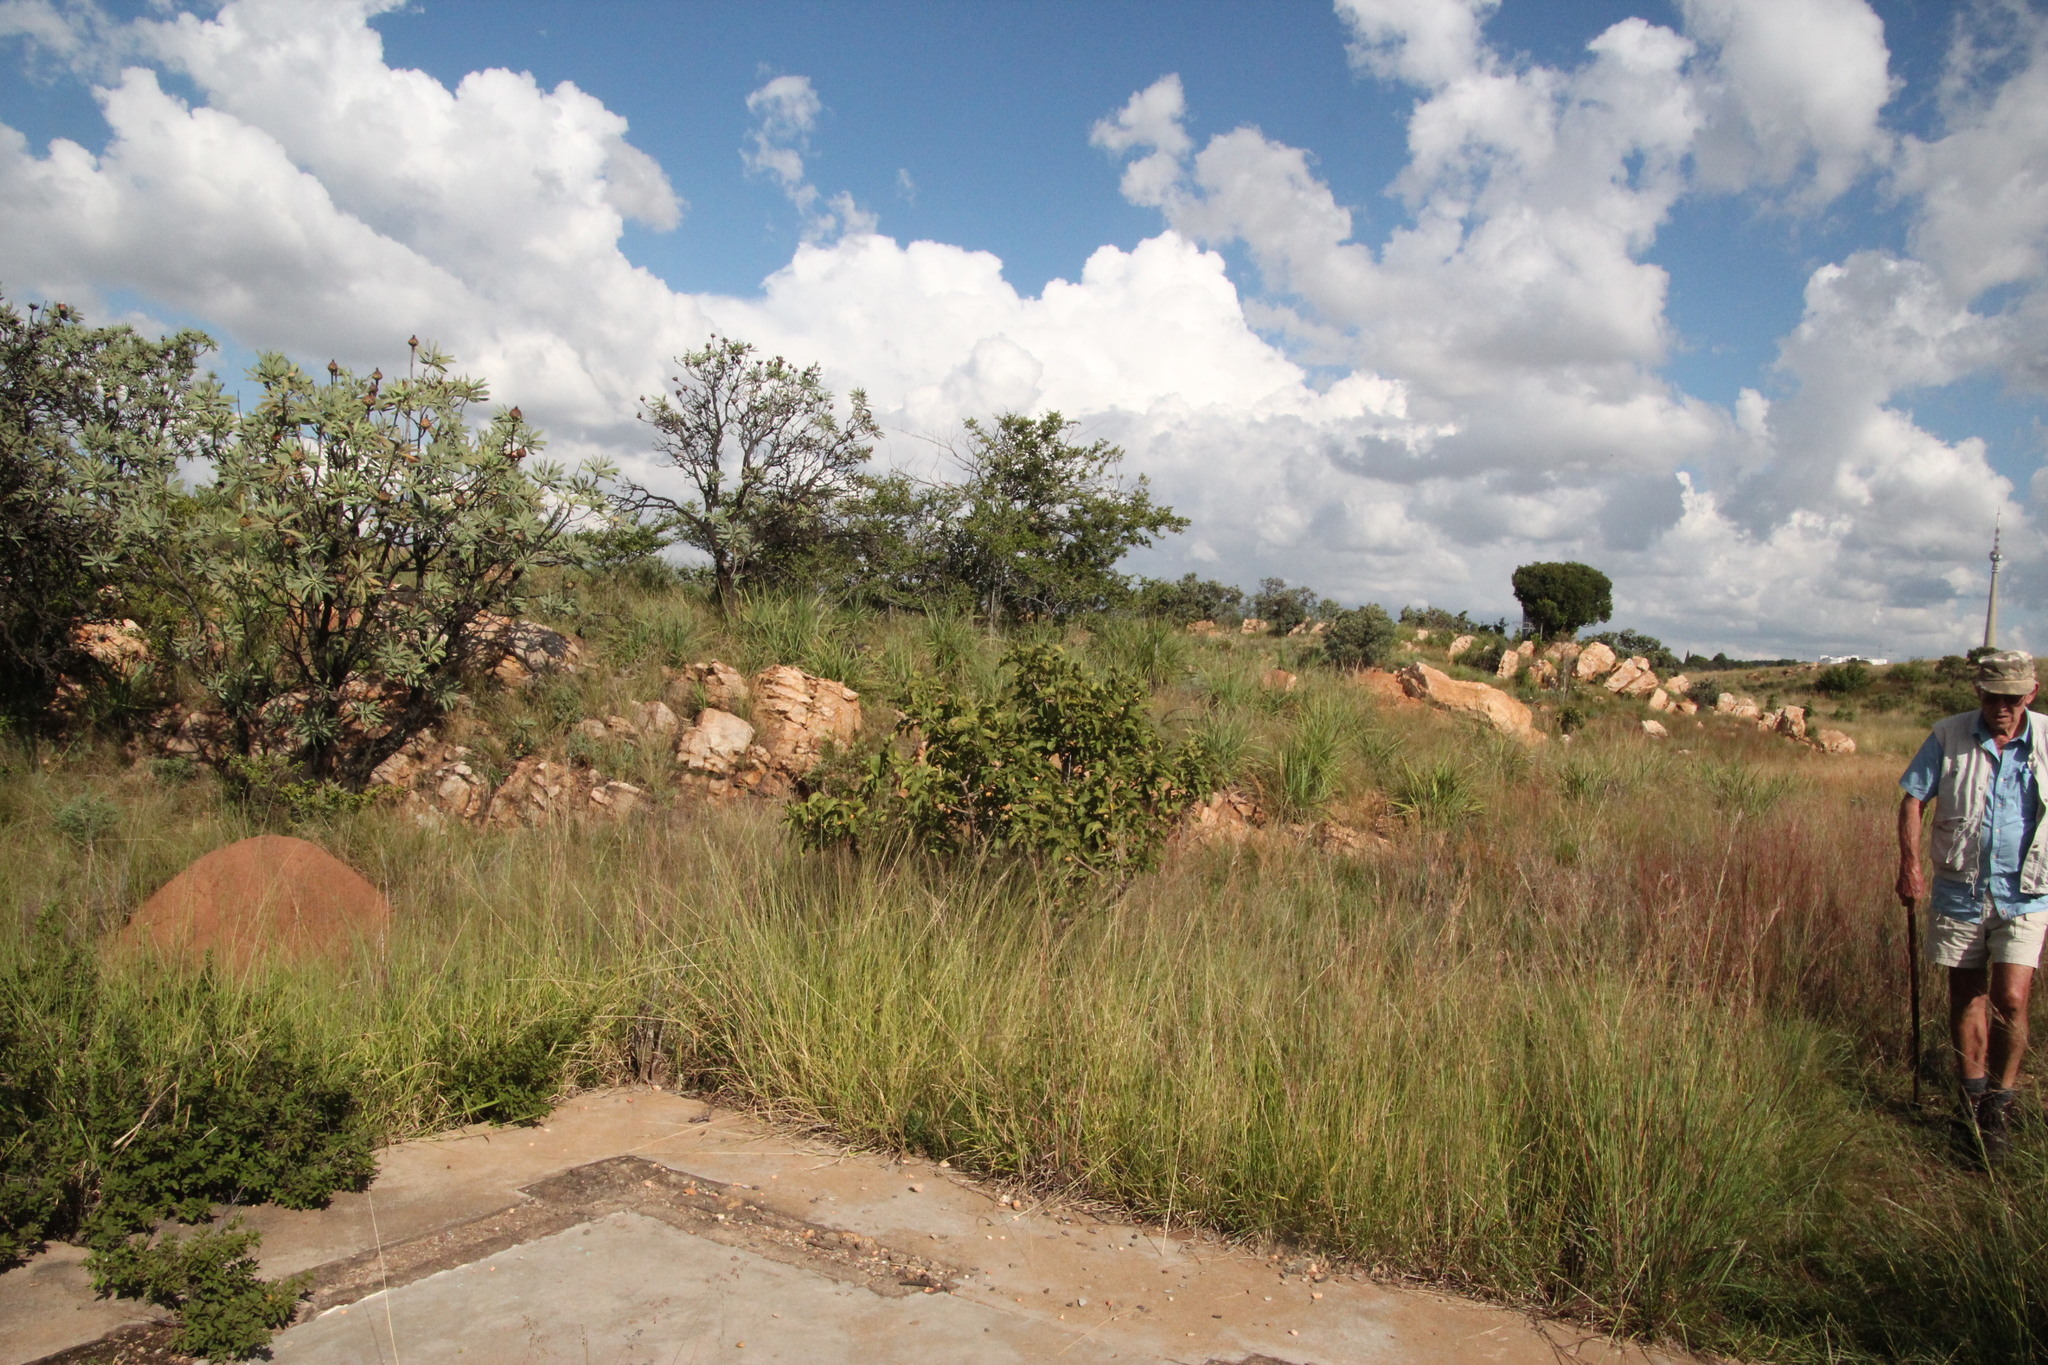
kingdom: Plantae
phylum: Tracheophyta
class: Magnoliopsida
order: Gentianales
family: Rubiaceae
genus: Vangueria
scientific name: Vangueria infausta
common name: Medlar
